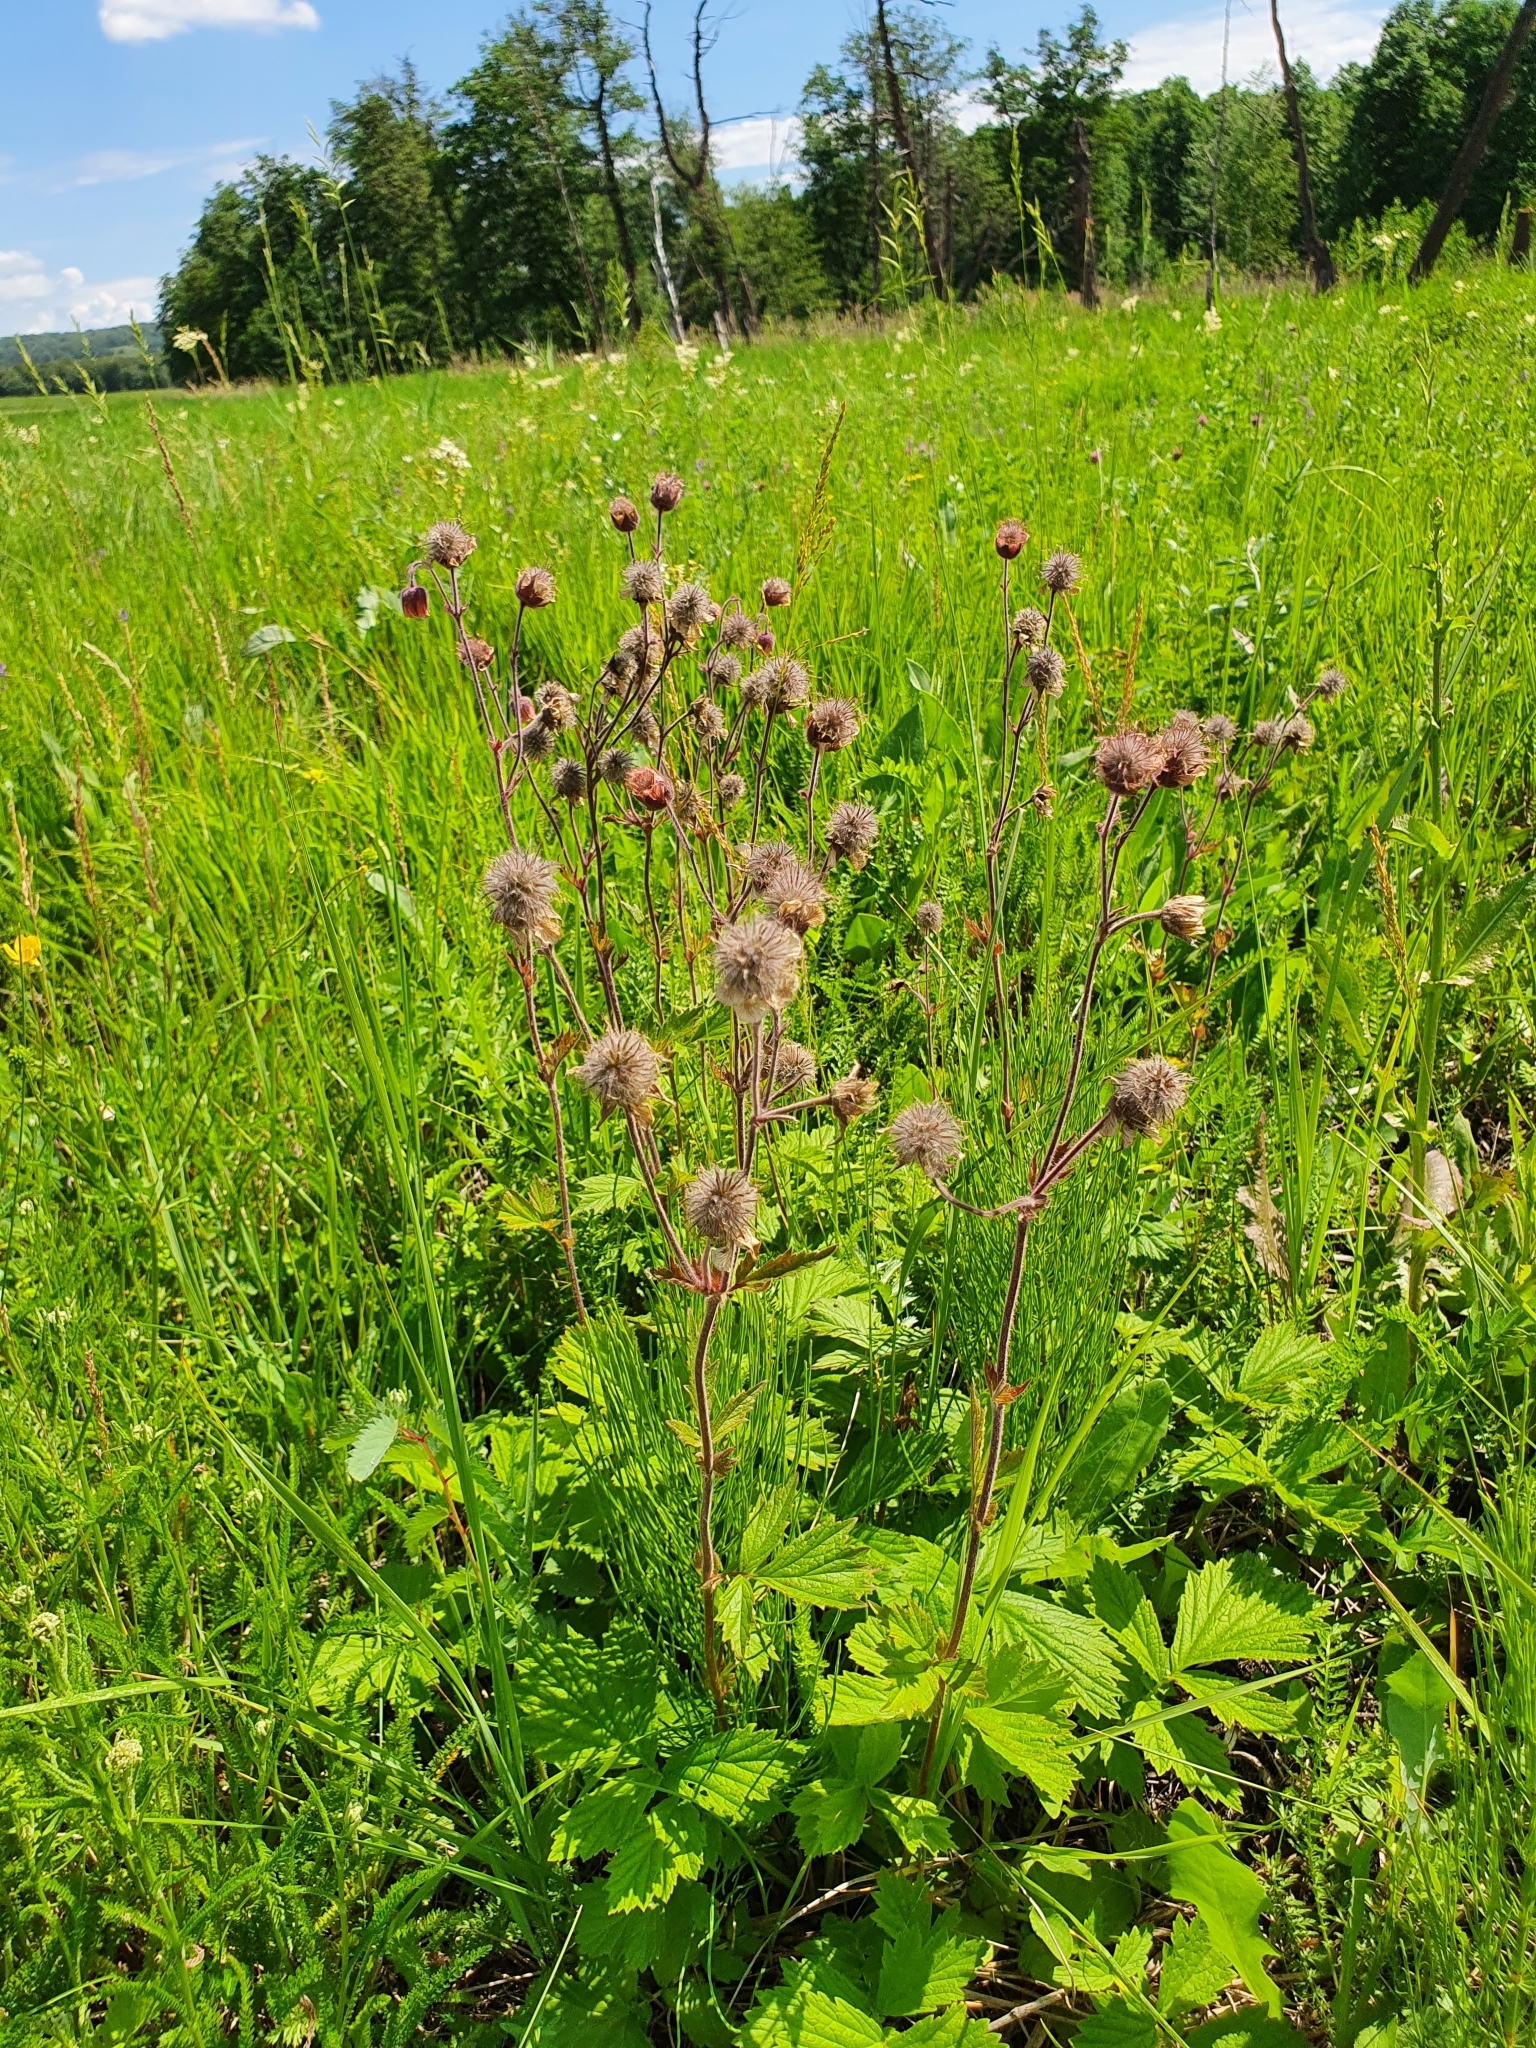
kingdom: Plantae
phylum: Tracheophyta
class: Magnoliopsida
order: Rosales
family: Rosaceae
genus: Geum
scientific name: Geum rivale
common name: Water avens
